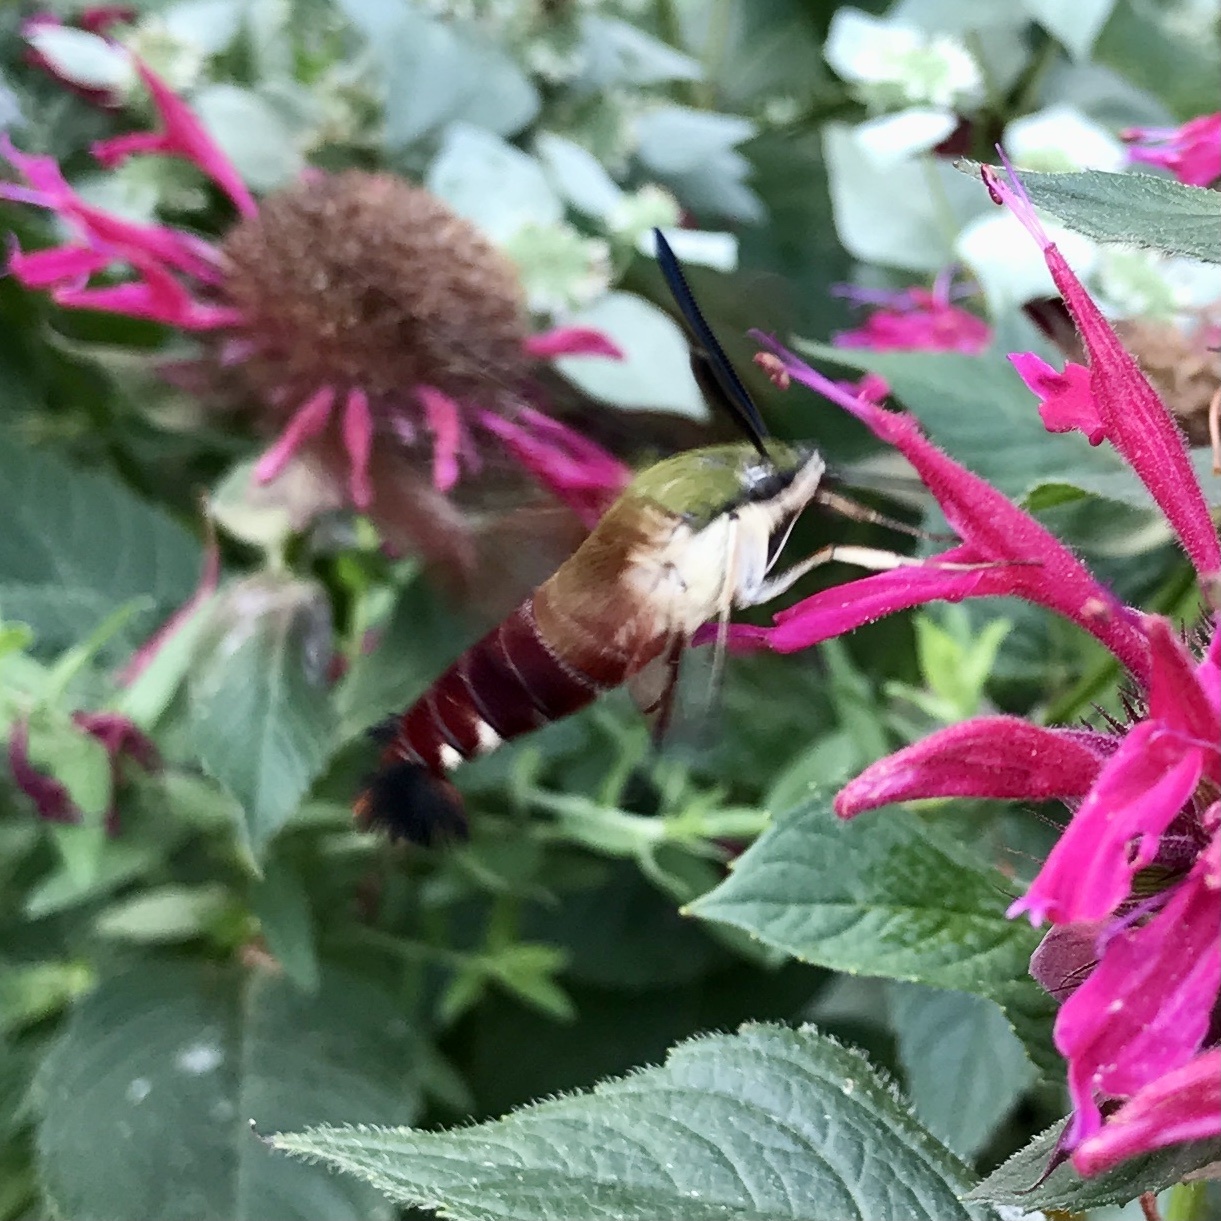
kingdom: Animalia
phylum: Arthropoda
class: Insecta
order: Lepidoptera
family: Sphingidae
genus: Hemaris
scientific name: Hemaris thysbe
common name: Common clear-wing
